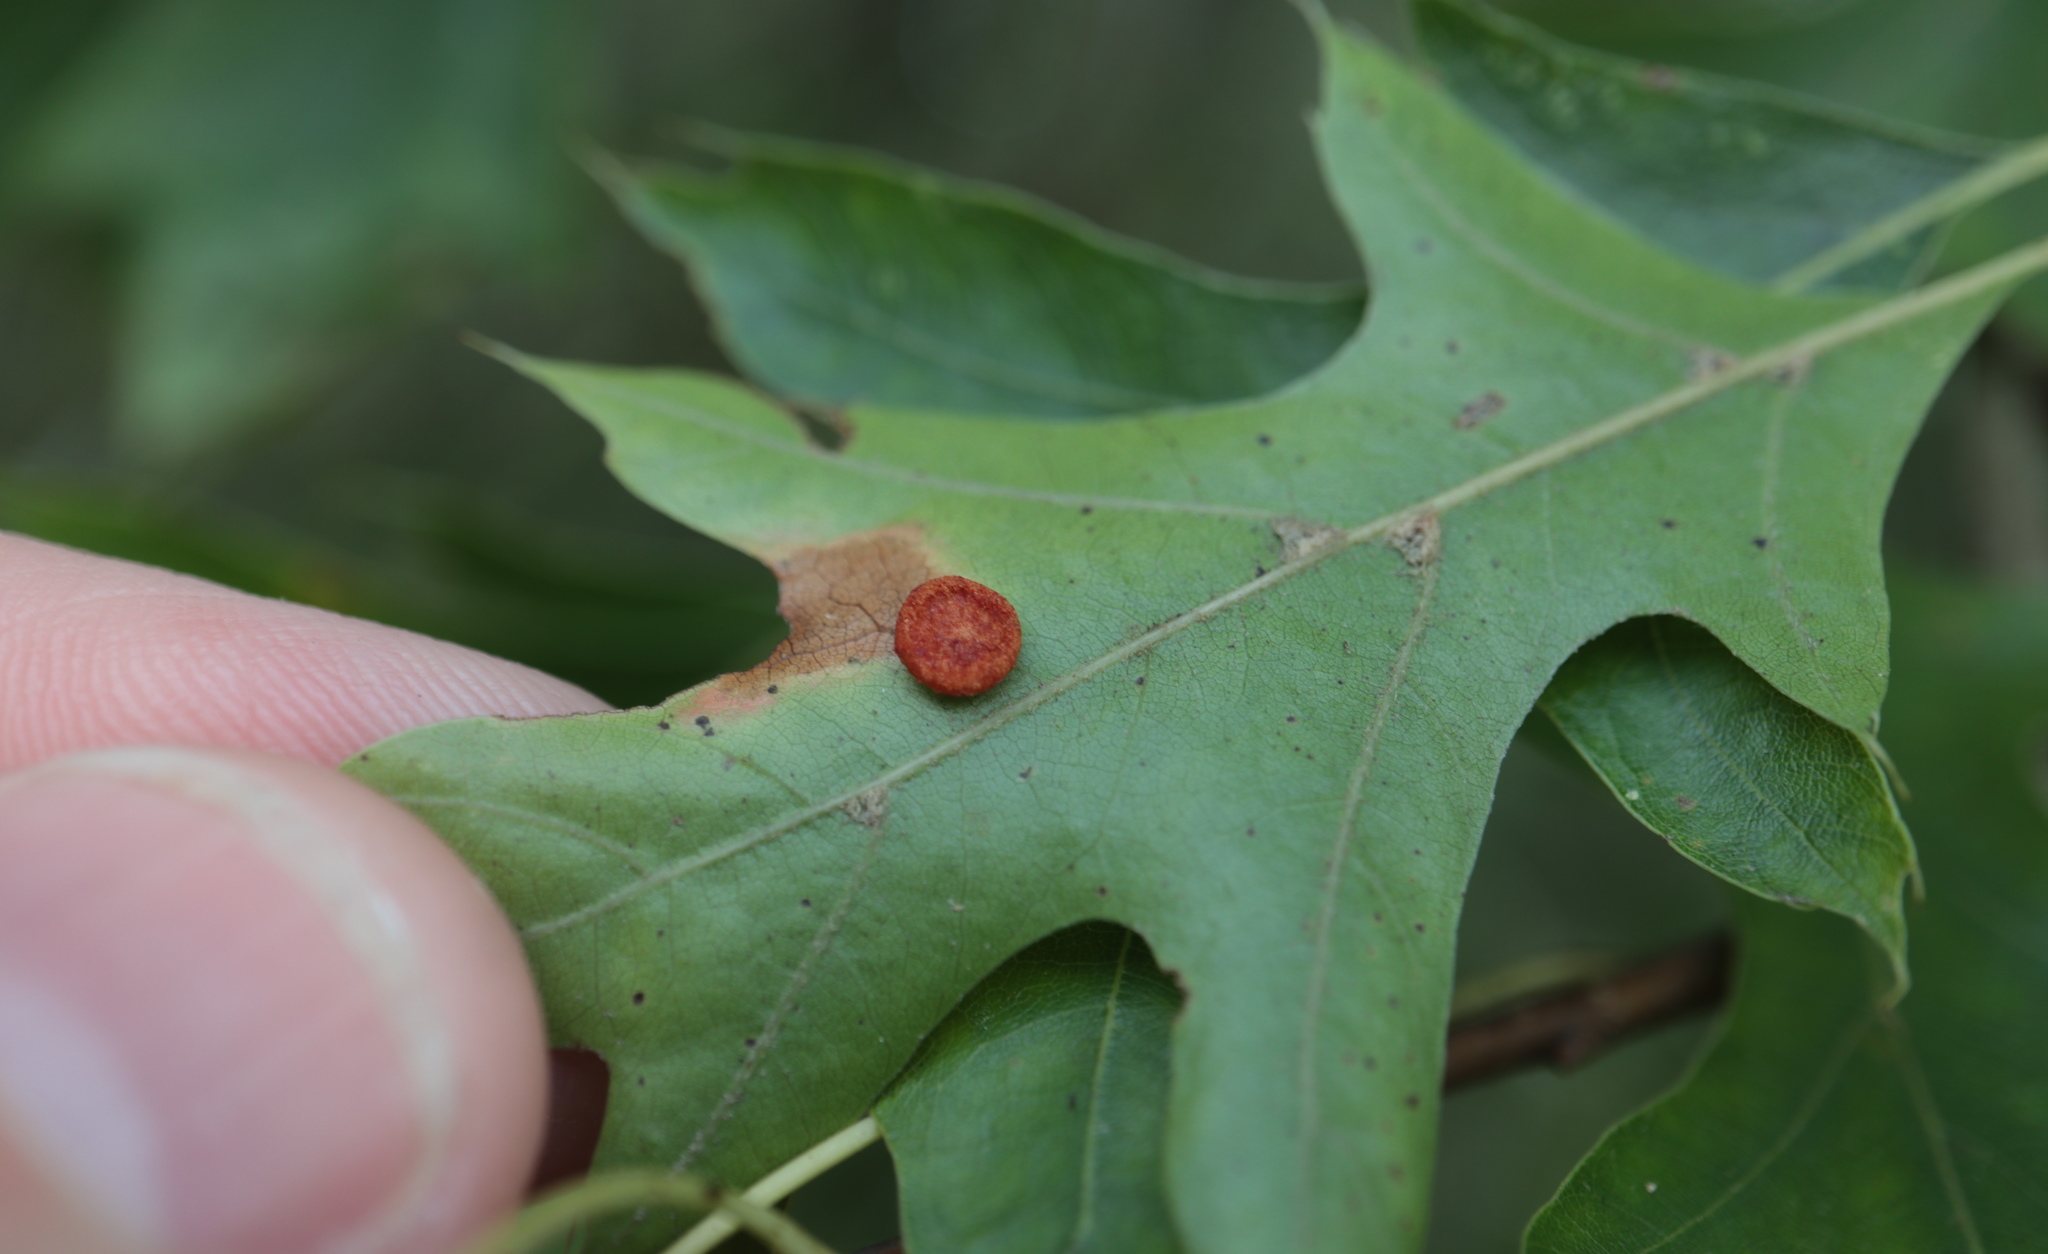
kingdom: Animalia
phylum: Arthropoda
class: Insecta
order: Hymenoptera
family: Cynipidae
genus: Dryocosmus
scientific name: Dryocosmus
